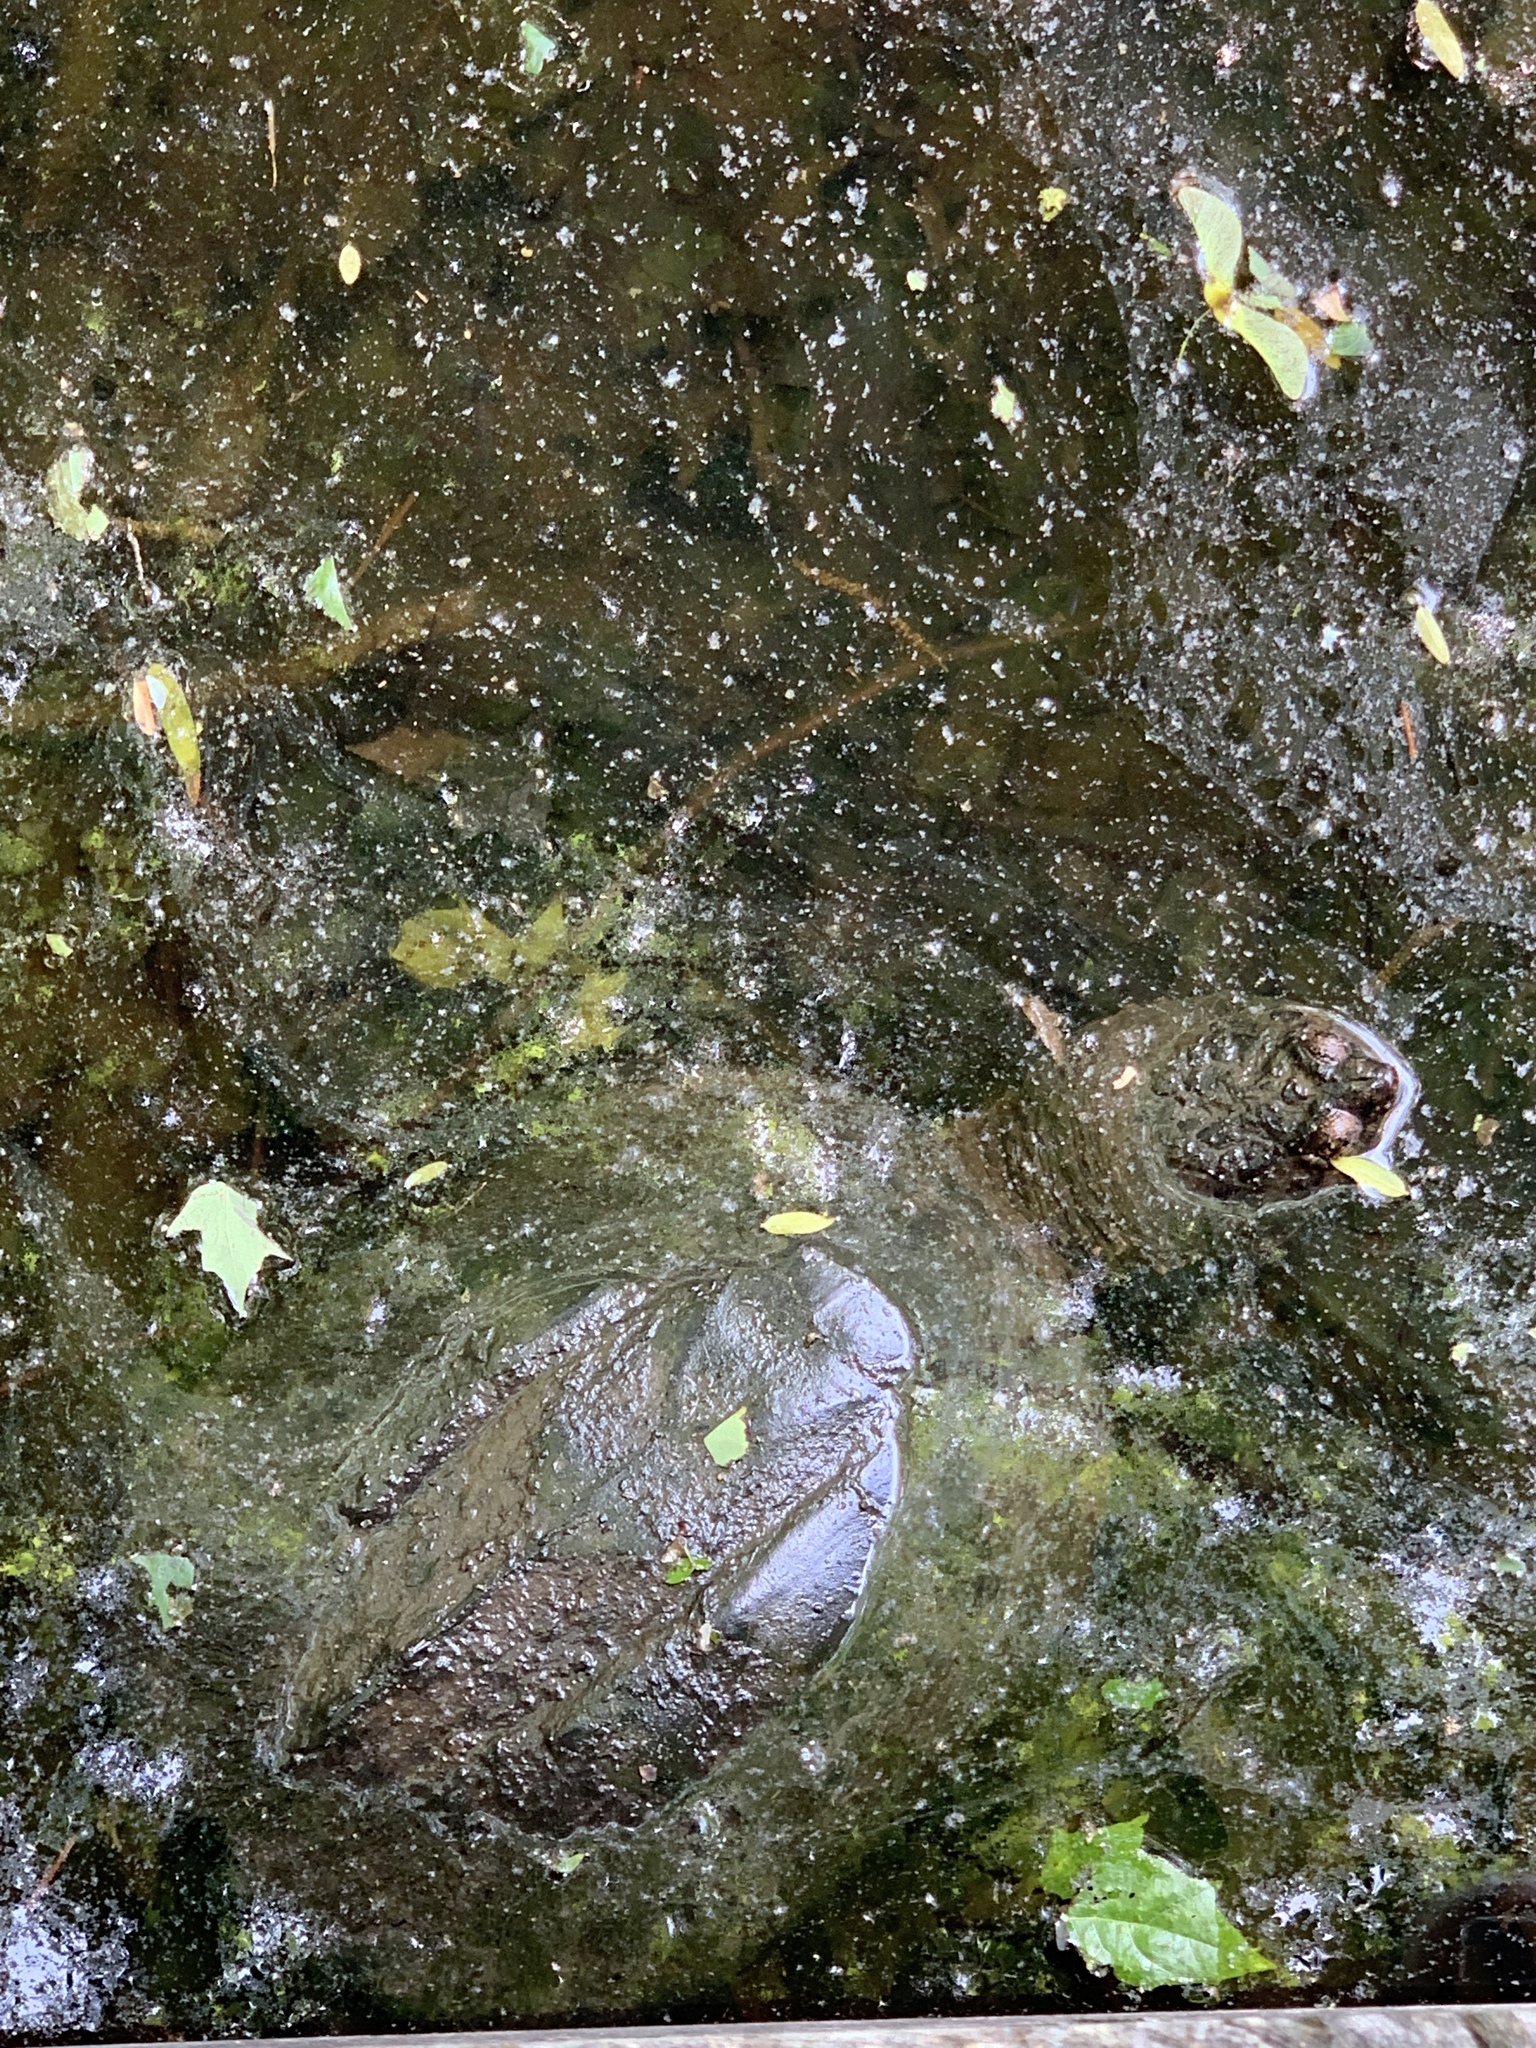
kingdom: Animalia
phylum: Chordata
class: Testudines
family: Chelydridae
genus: Chelydra
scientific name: Chelydra serpentina
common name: Common snapping turtle
